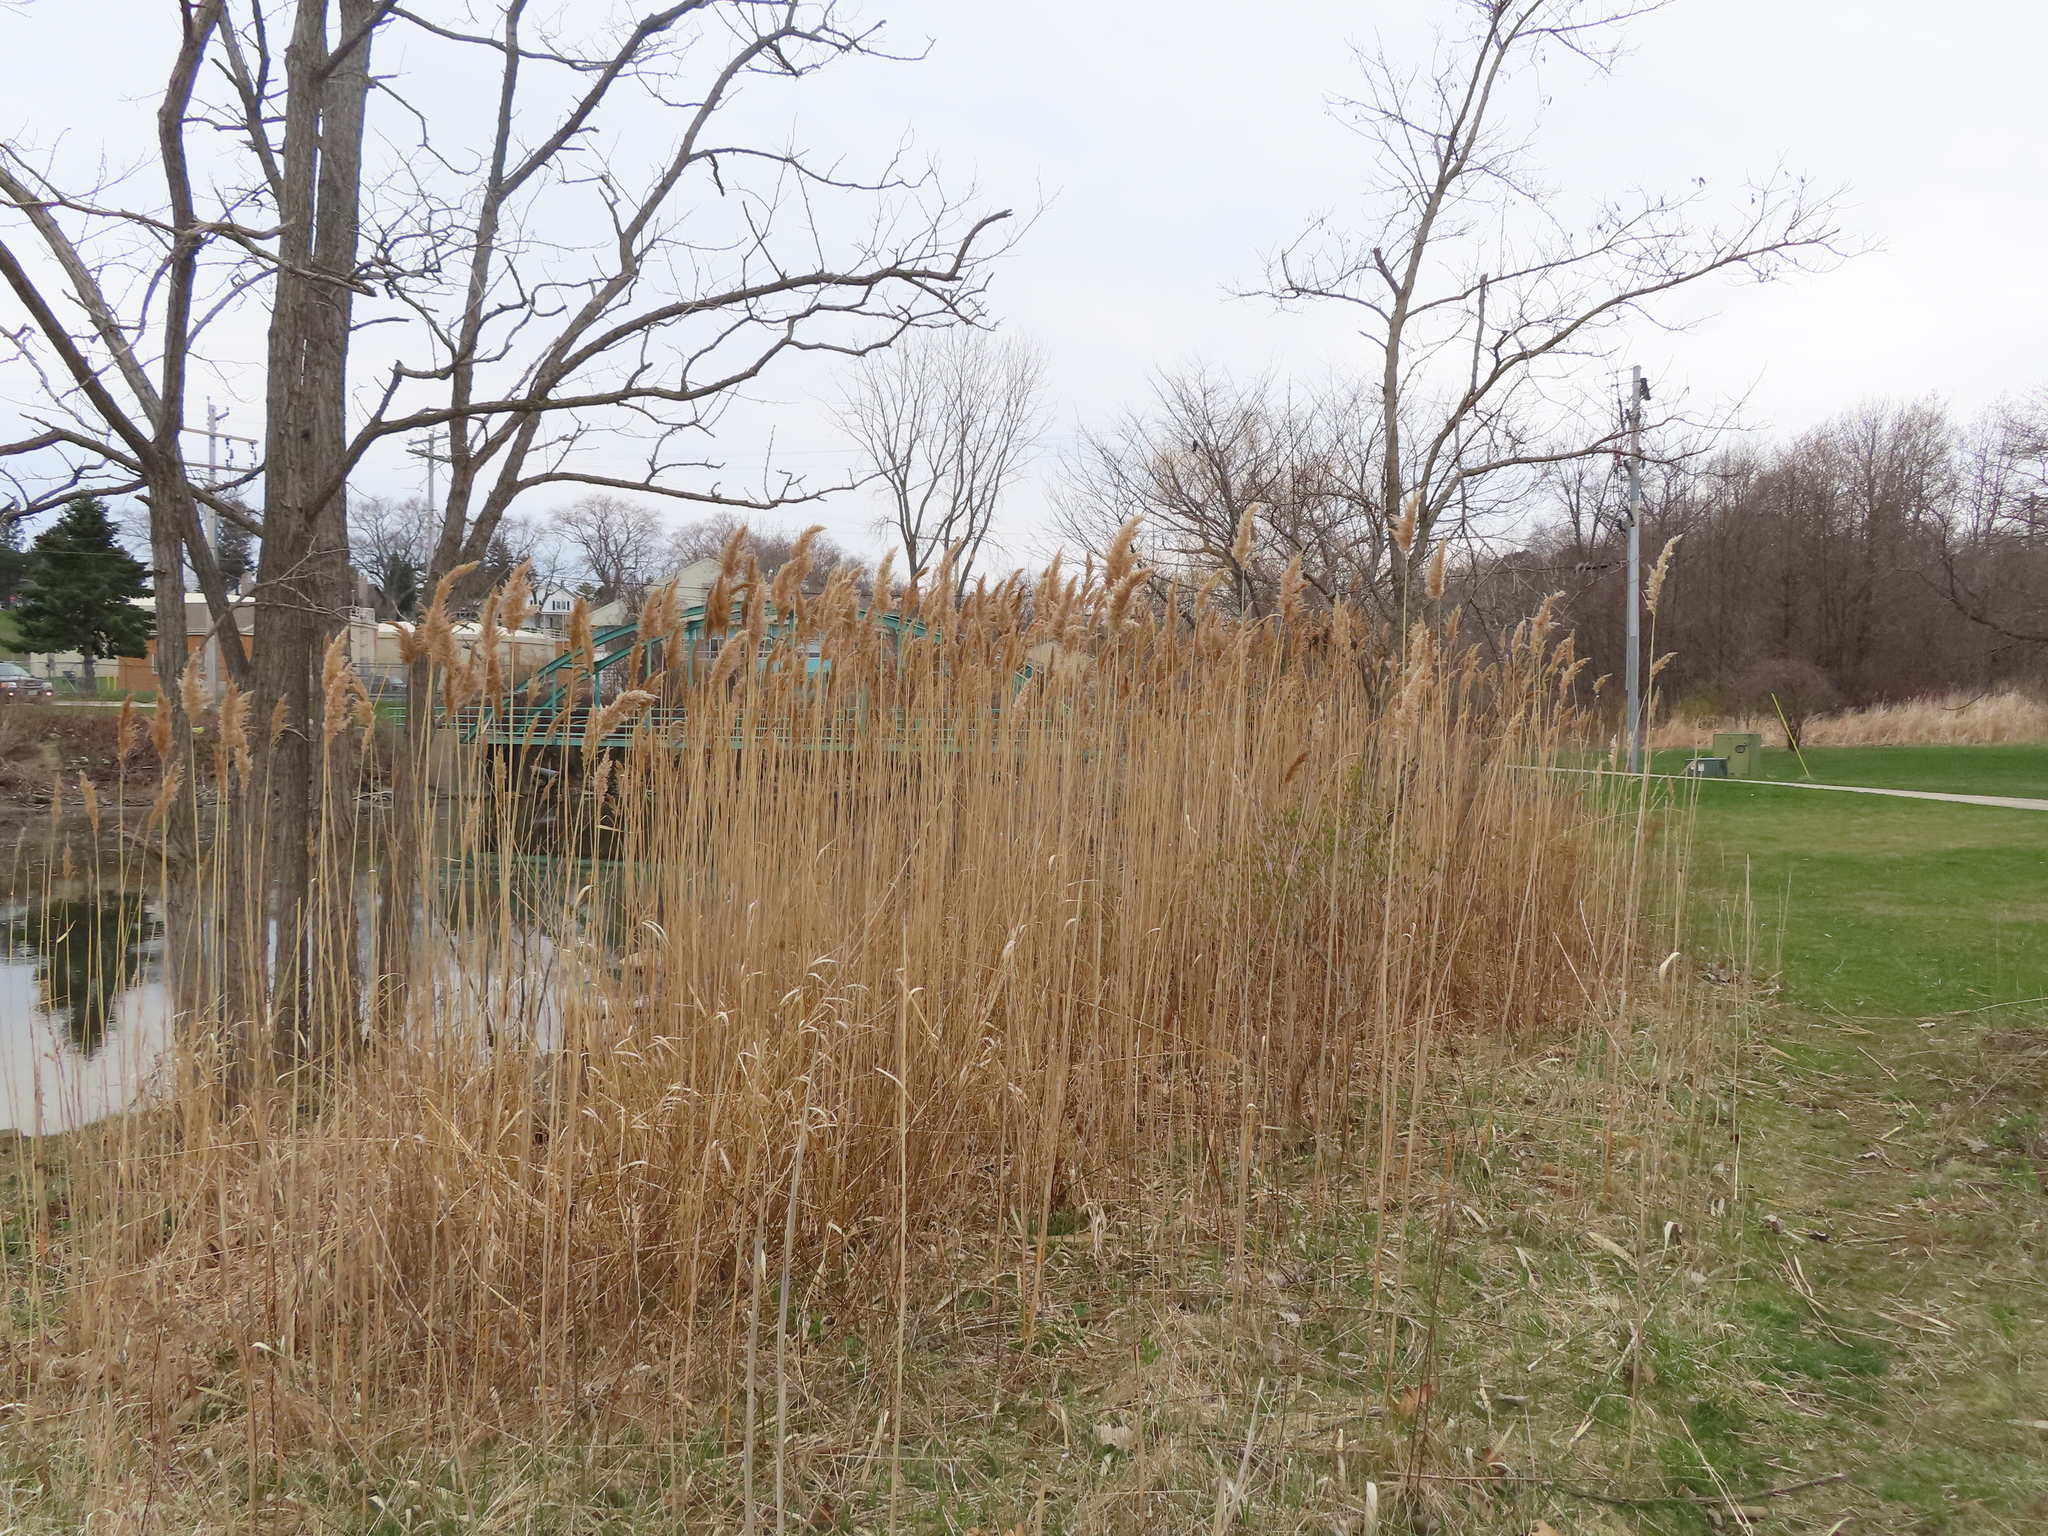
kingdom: Plantae
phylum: Tracheophyta
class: Liliopsida
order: Poales
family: Poaceae
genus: Phragmites
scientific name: Phragmites australis
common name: Common reed
